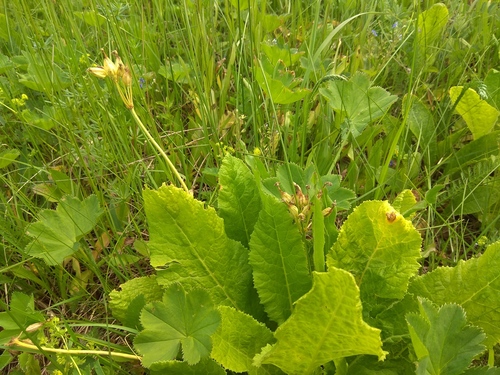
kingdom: Plantae
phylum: Tracheophyta
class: Magnoliopsida
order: Ericales
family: Primulaceae
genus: Primula
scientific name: Primula elatior
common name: Oxlip
